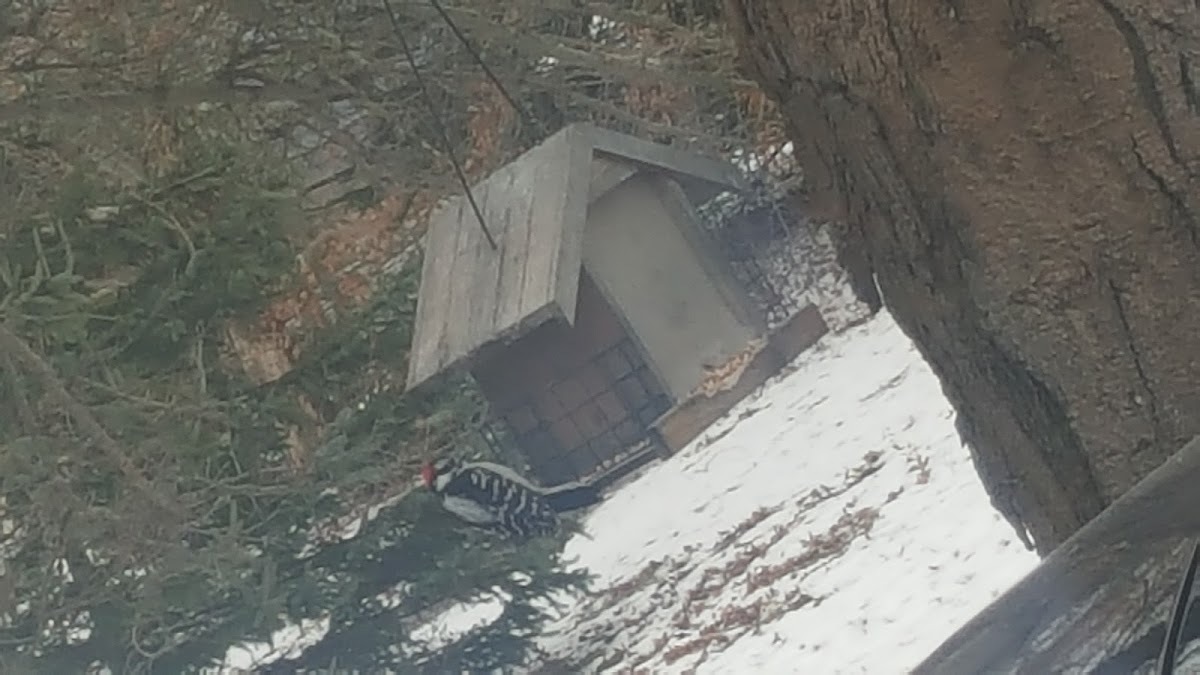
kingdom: Animalia
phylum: Chordata
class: Aves
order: Piciformes
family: Picidae
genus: Dryobates
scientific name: Dryobates pubescens
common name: Downy woodpecker
